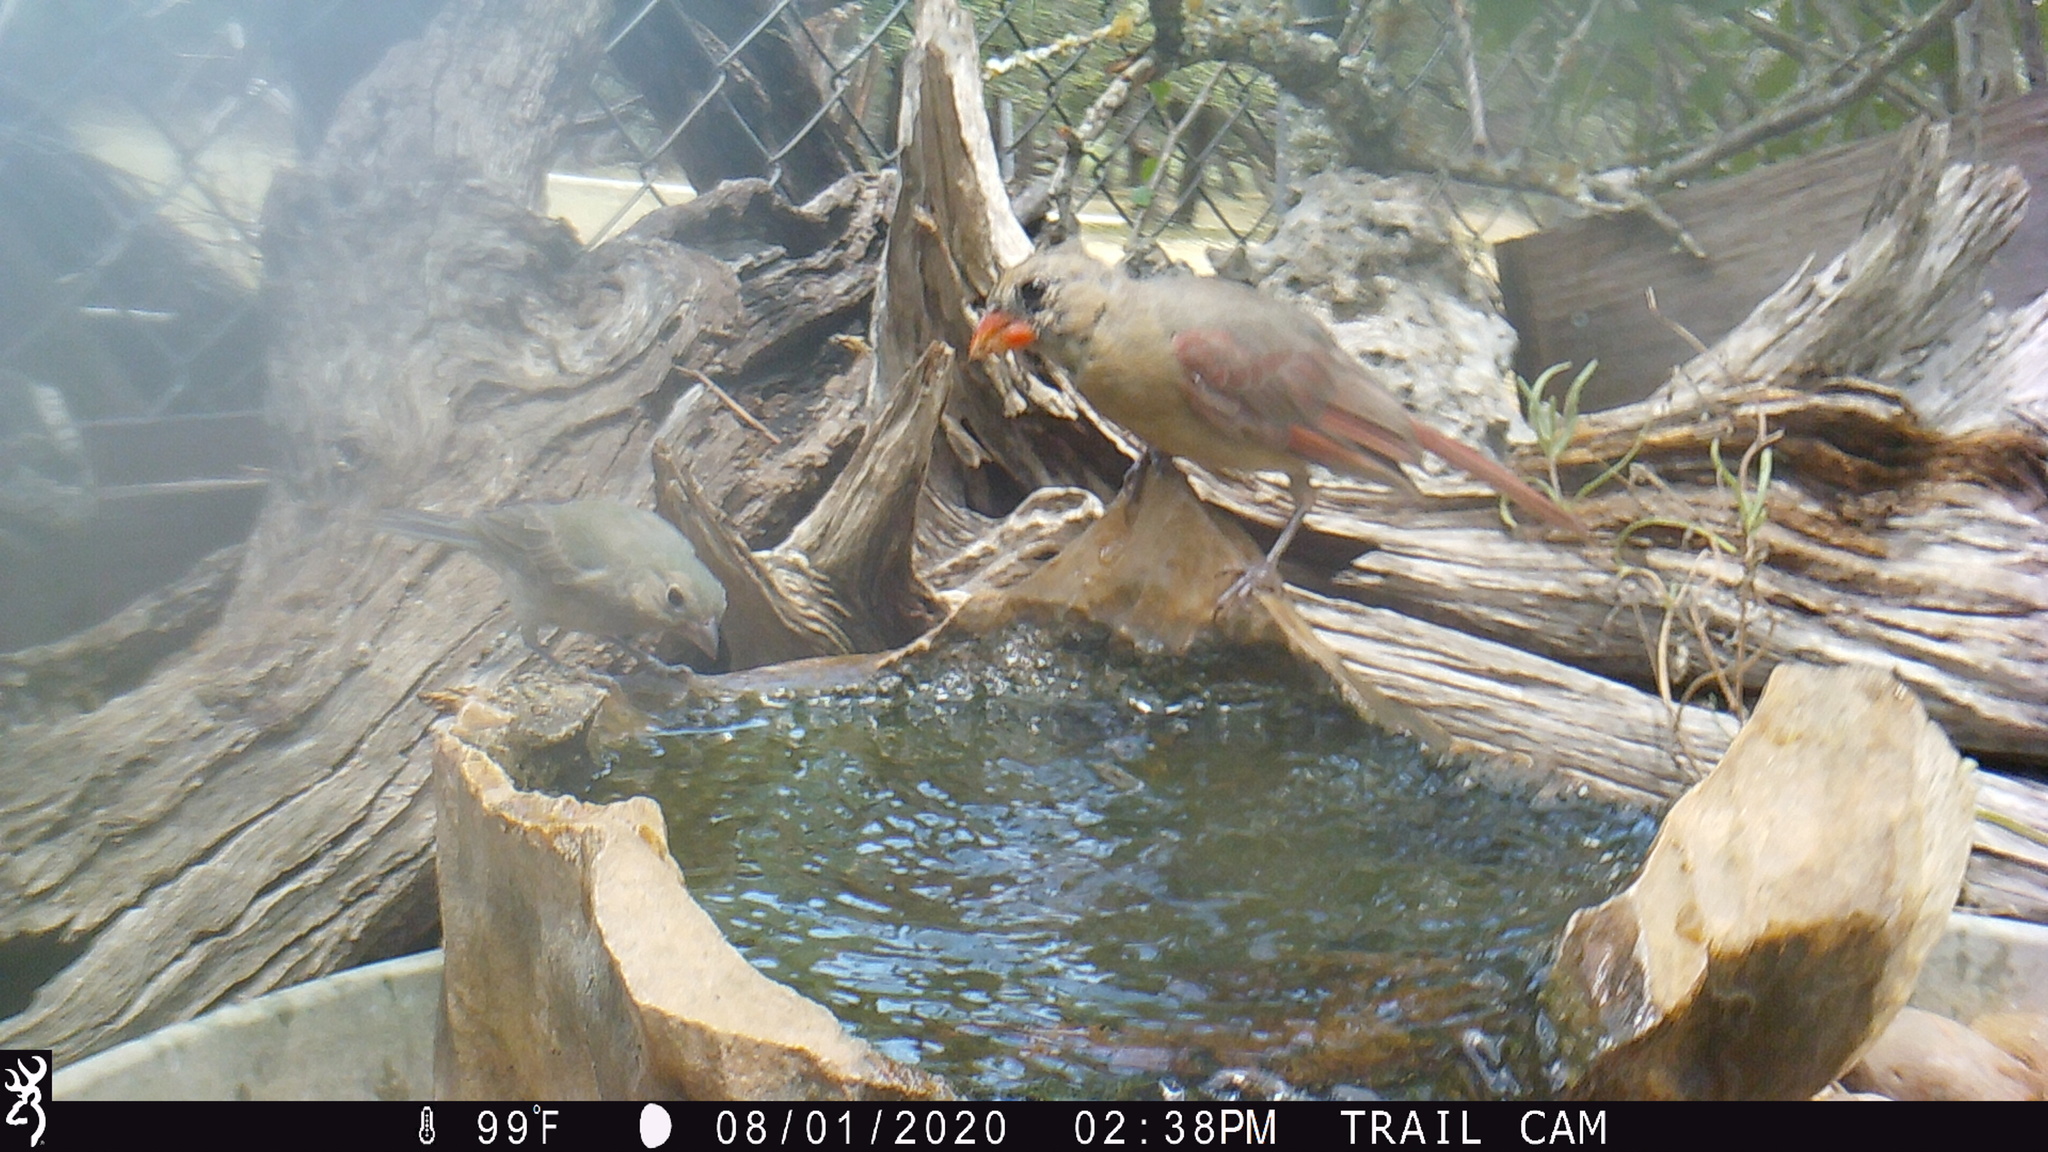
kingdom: Animalia
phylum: Chordata
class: Aves
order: Passeriformes
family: Cardinalidae
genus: Cardinalis
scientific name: Cardinalis cardinalis
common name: Northern cardinal
